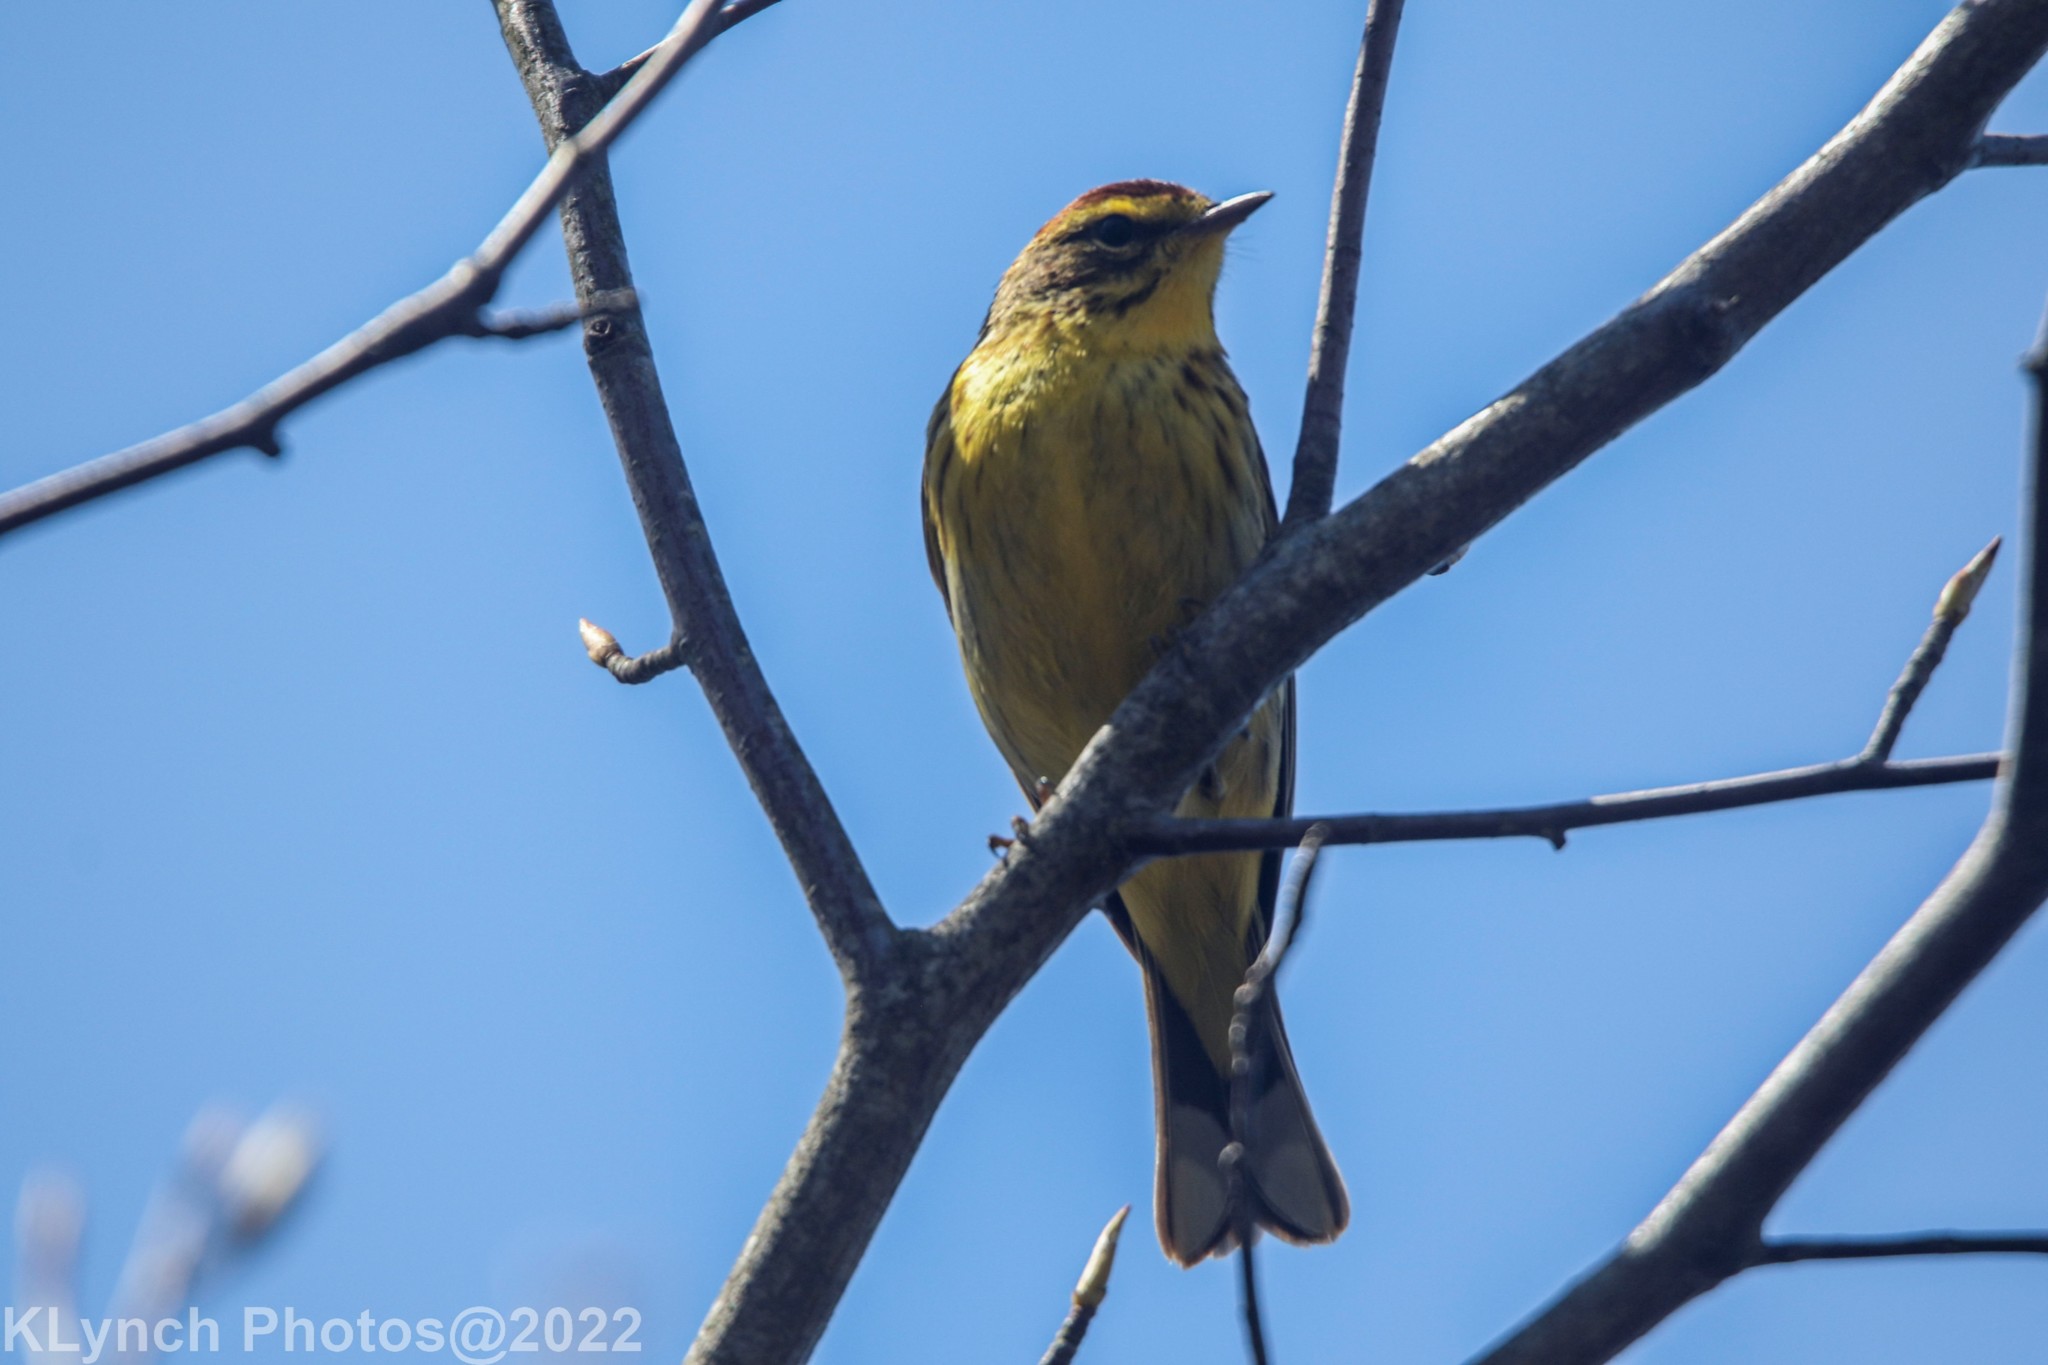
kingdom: Animalia
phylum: Chordata
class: Aves
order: Passeriformes
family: Parulidae
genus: Setophaga
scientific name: Setophaga palmarum
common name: Palm warbler
